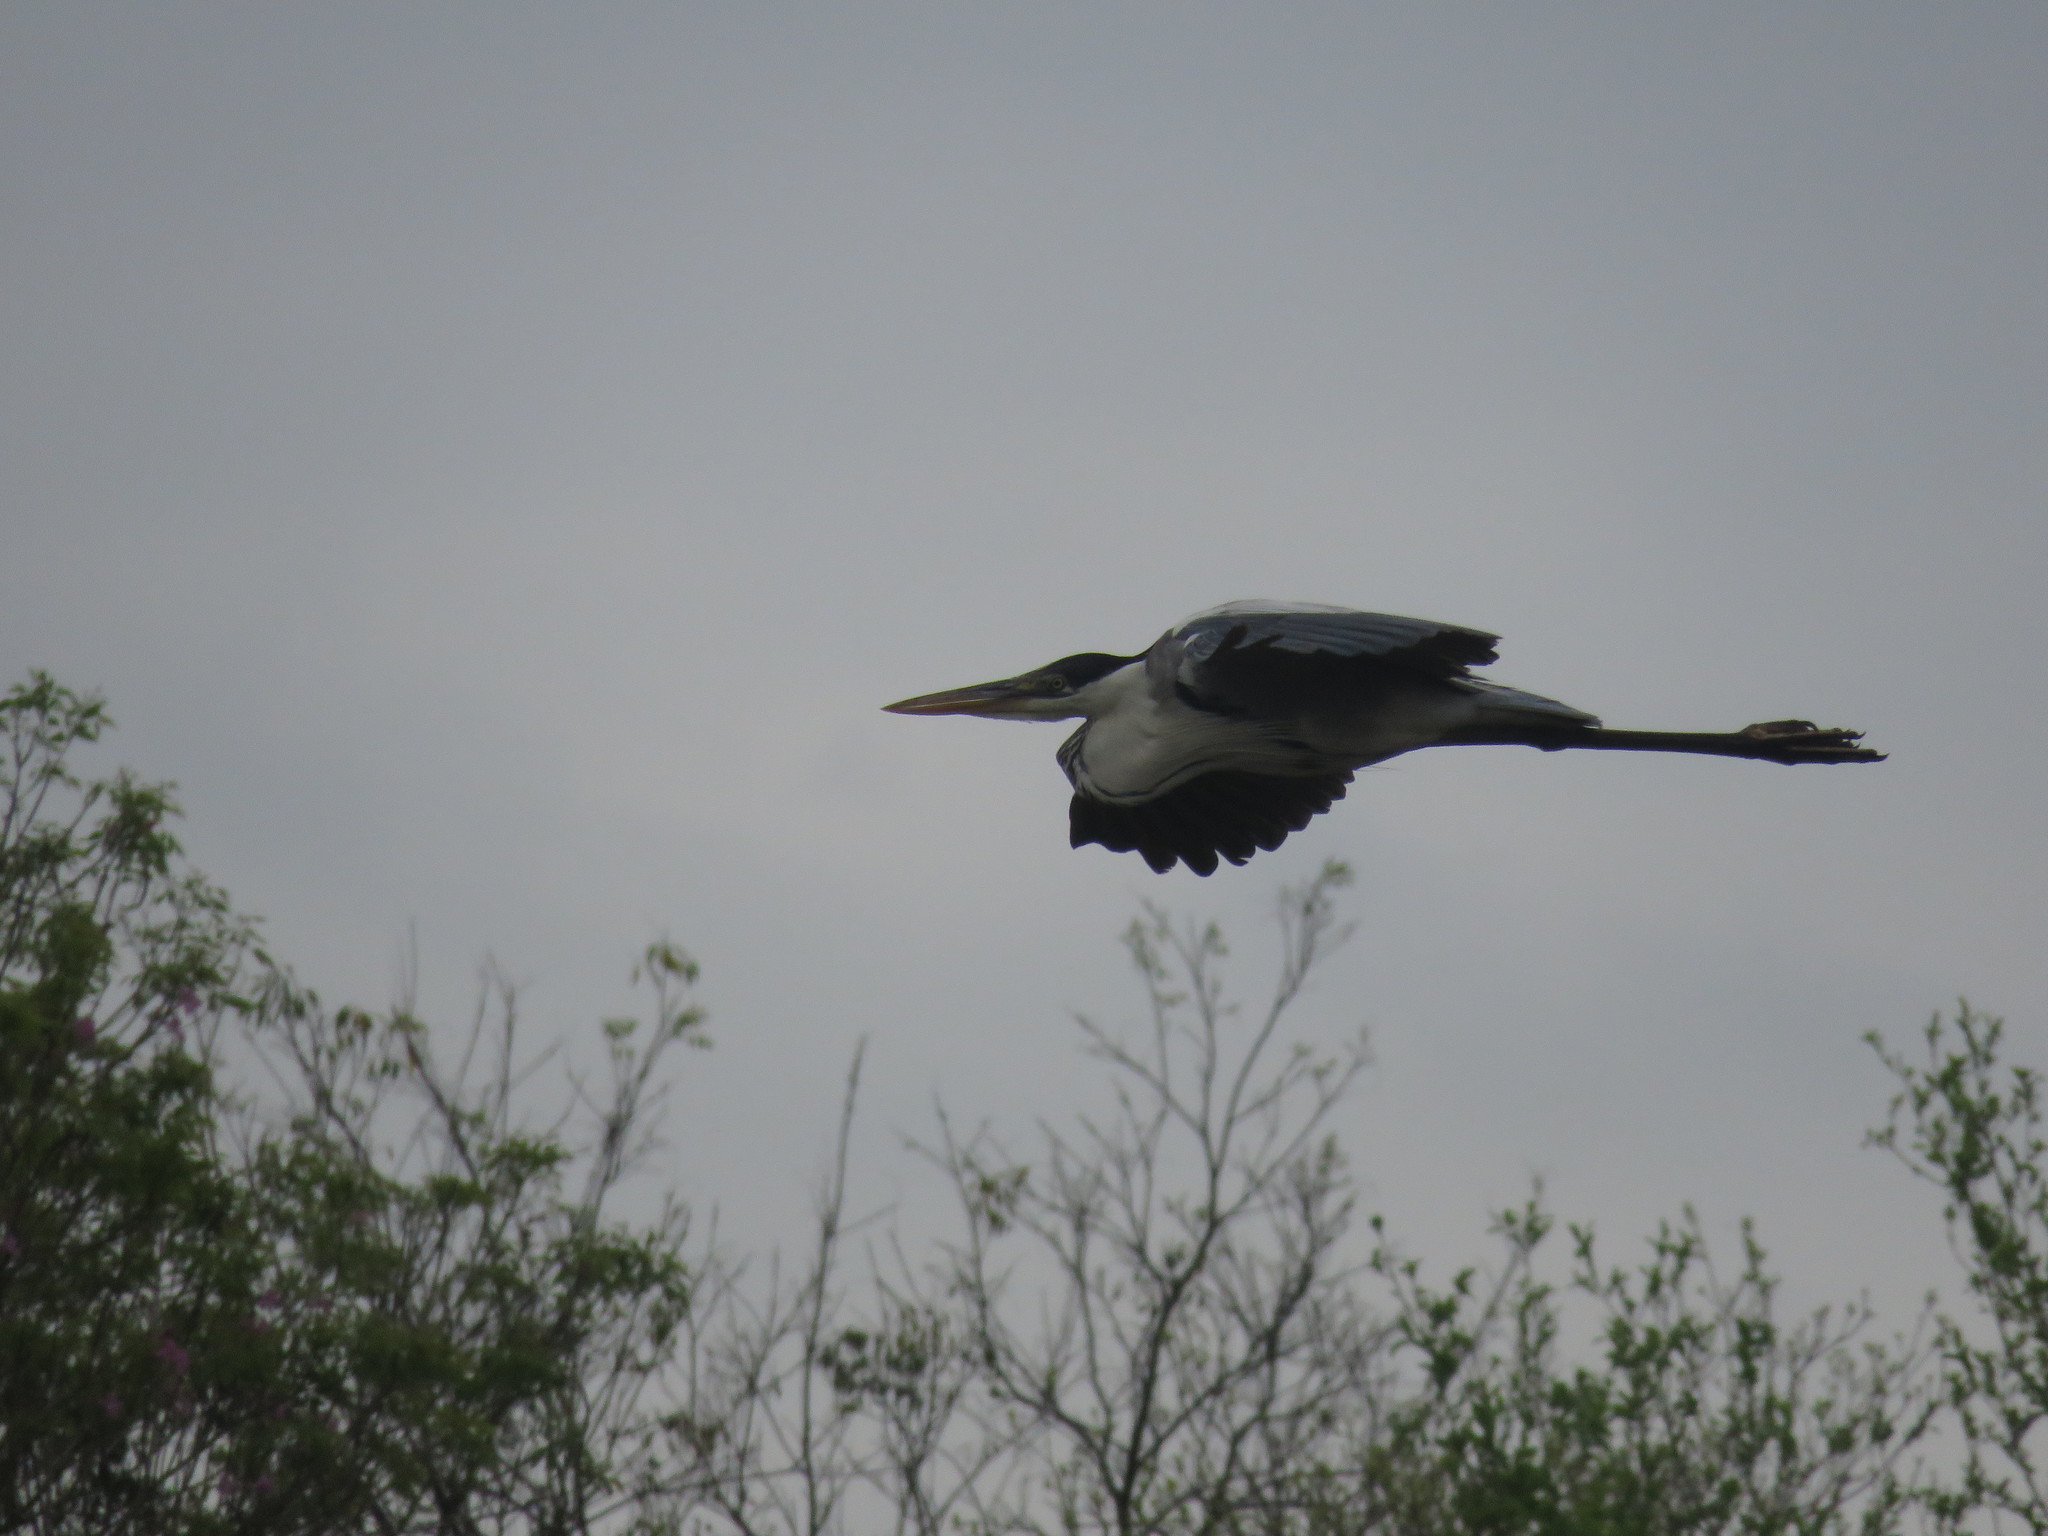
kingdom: Animalia
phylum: Chordata
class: Aves
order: Pelecaniformes
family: Ardeidae
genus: Ardea
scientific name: Ardea cocoi
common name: Cocoi heron
